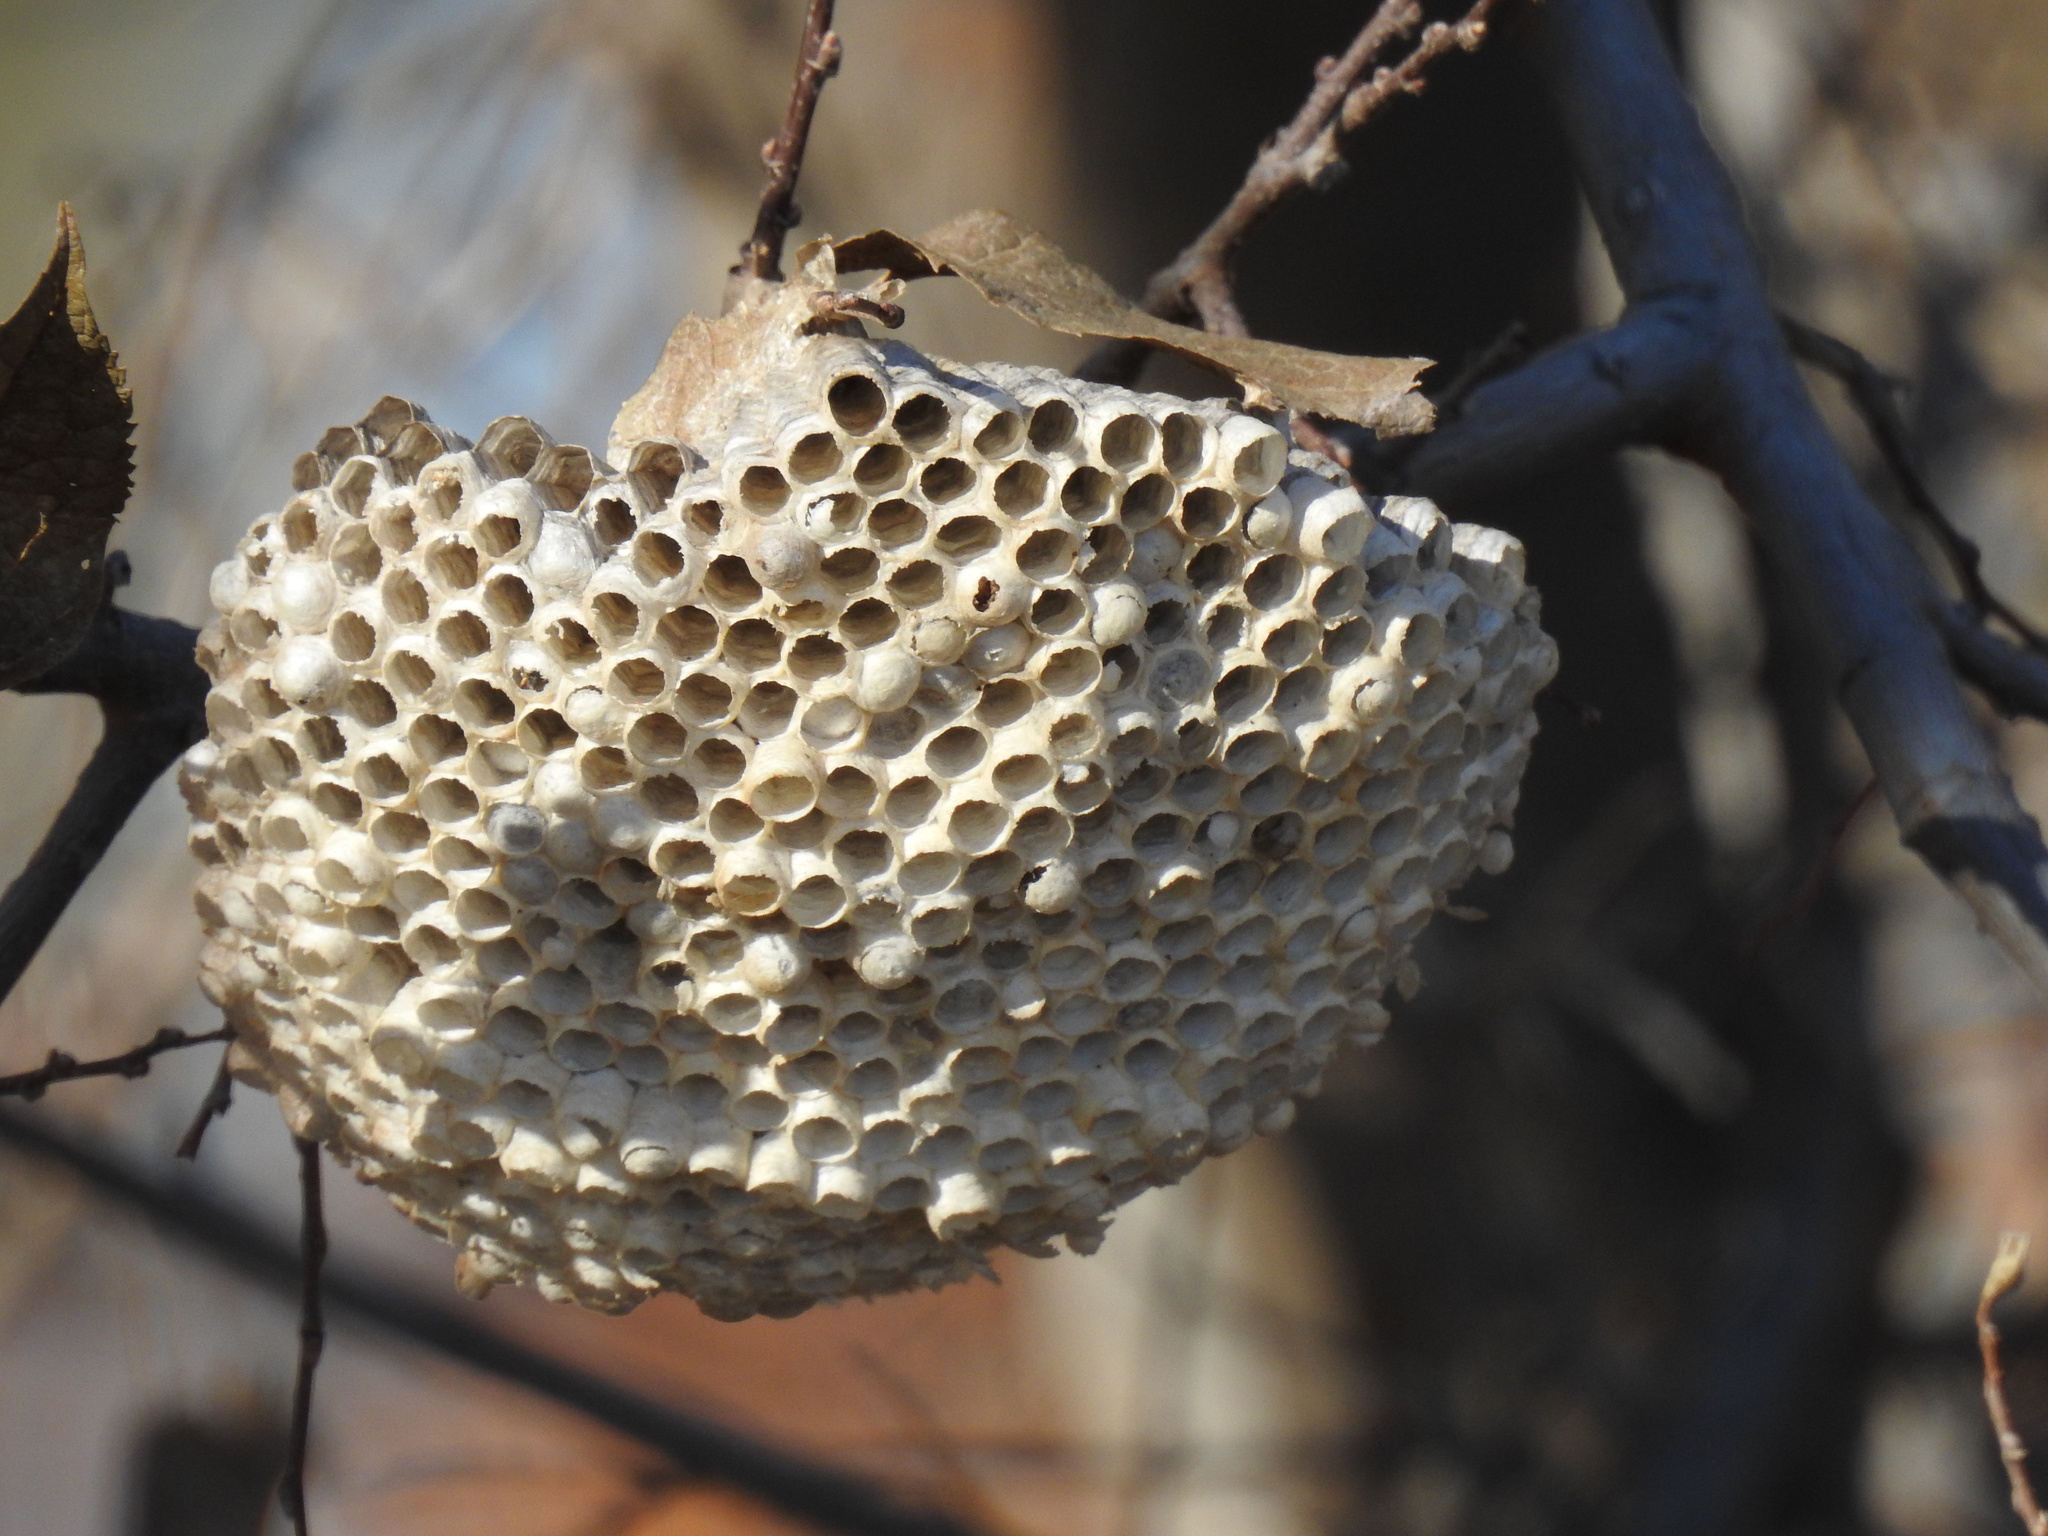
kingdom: Animalia
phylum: Arthropoda
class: Insecta
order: Hymenoptera
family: Eumenidae
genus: Polistes
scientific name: Polistes
